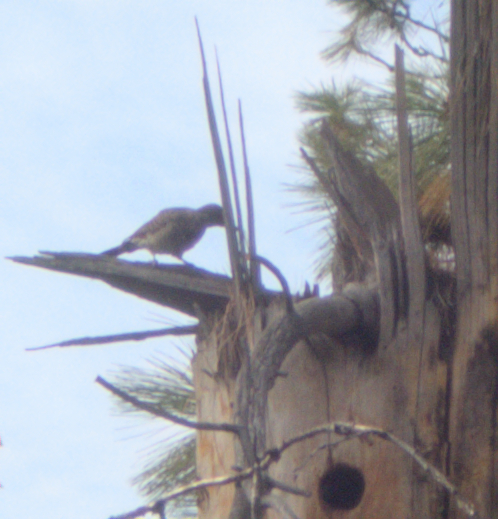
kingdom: Animalia
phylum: Chordata
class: Aves
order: Piciformes
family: Picidae
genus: Colaptes
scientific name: Colaptes auratus
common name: Northern flicker
